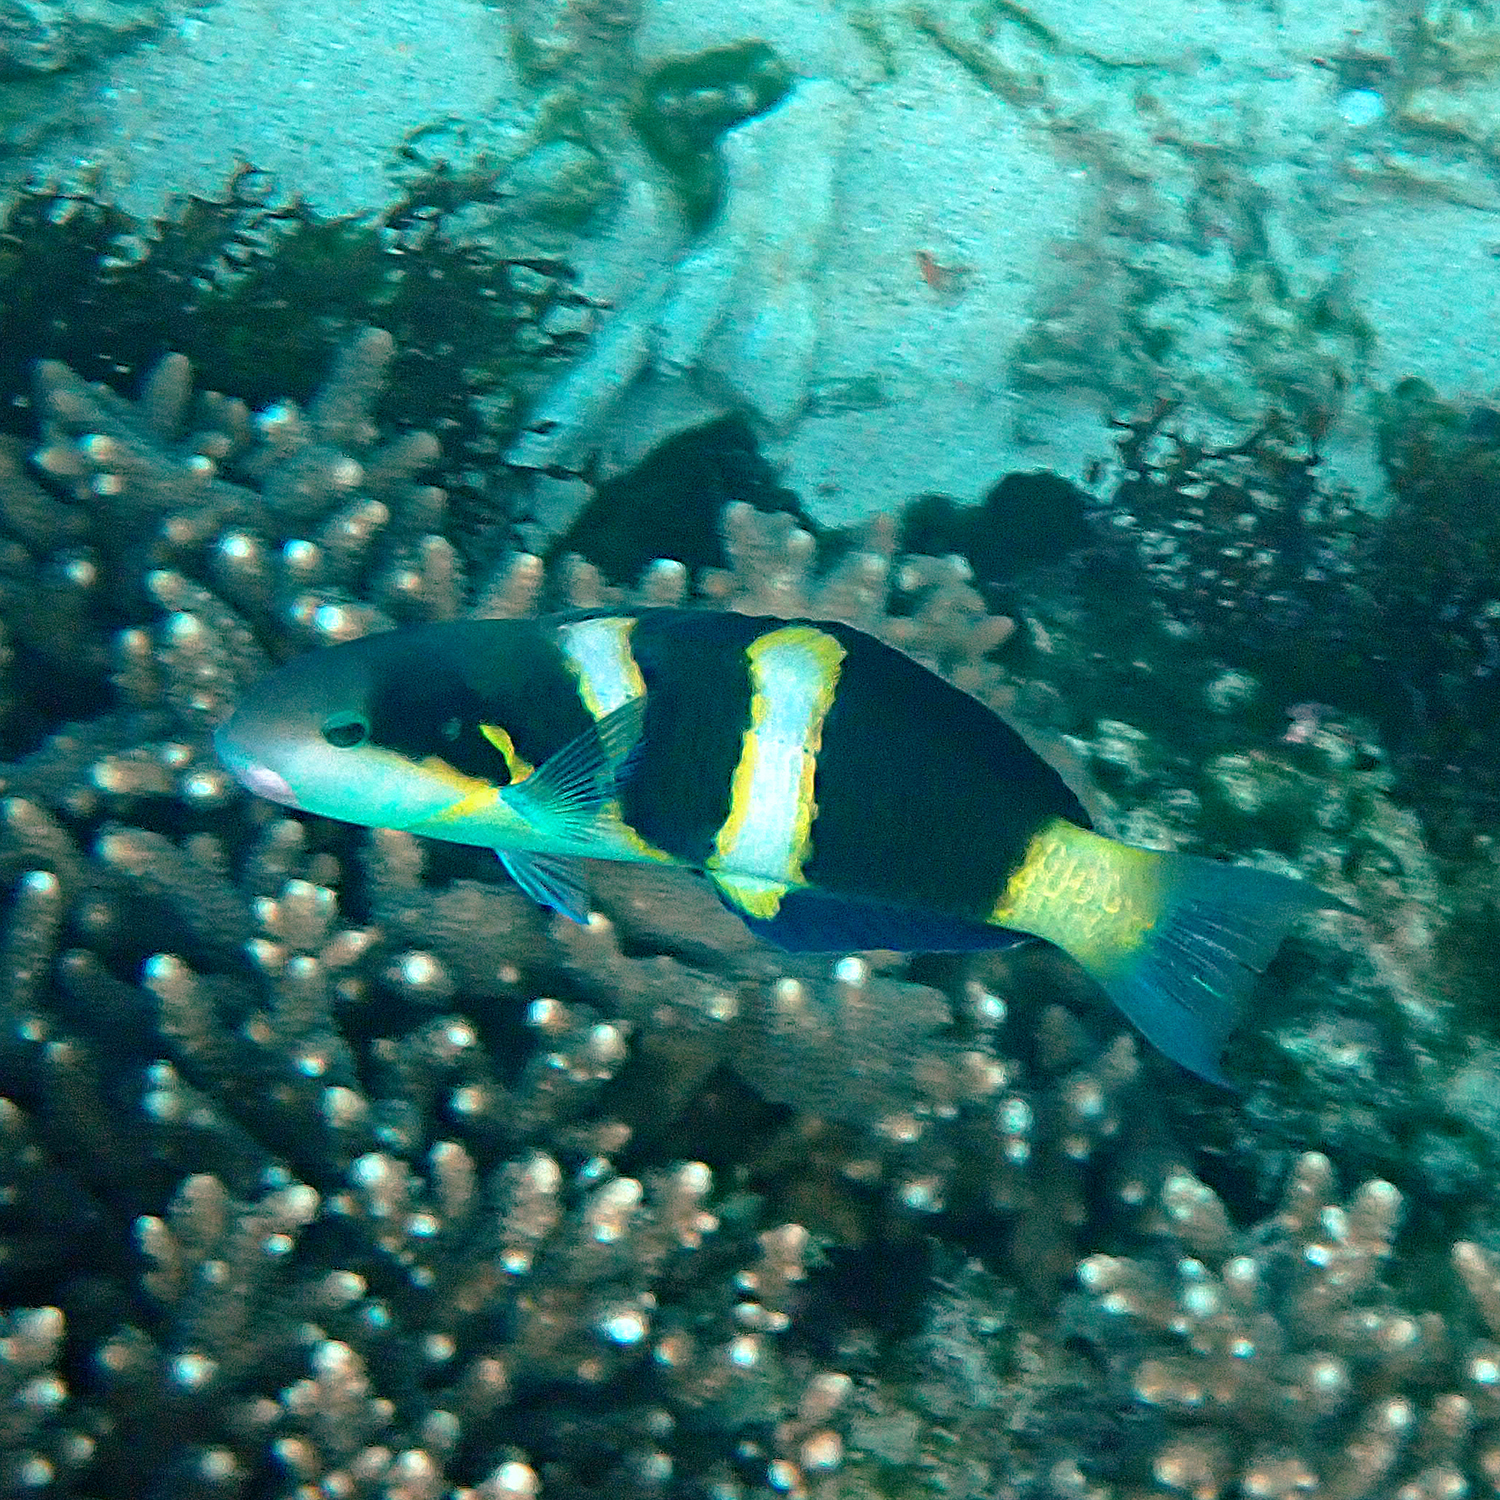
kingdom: Animalia
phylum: Chordata
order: Perciformes
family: Labridae
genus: Thalassoma
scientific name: Thalassoma nigrofasciatum
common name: Black-barred wrasse
